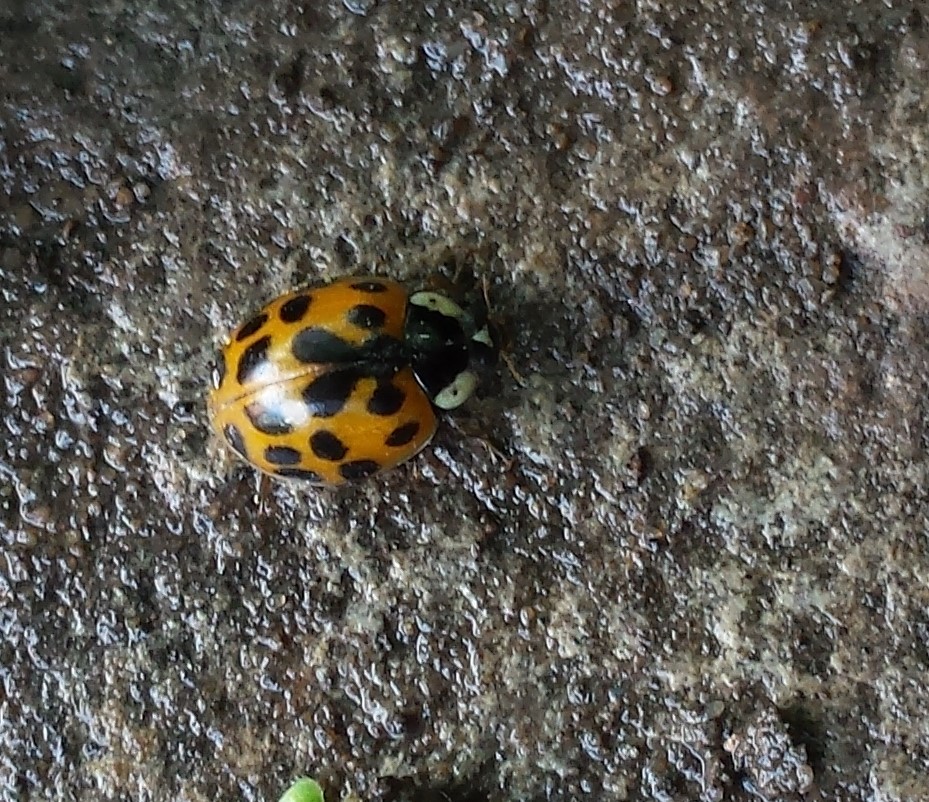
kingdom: Animalia
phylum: Arthropoda
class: Insecta
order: Coleoptera
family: Coccinellidae
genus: Harmonia
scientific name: Harmonia axyridis
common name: Harlequin ladybird
